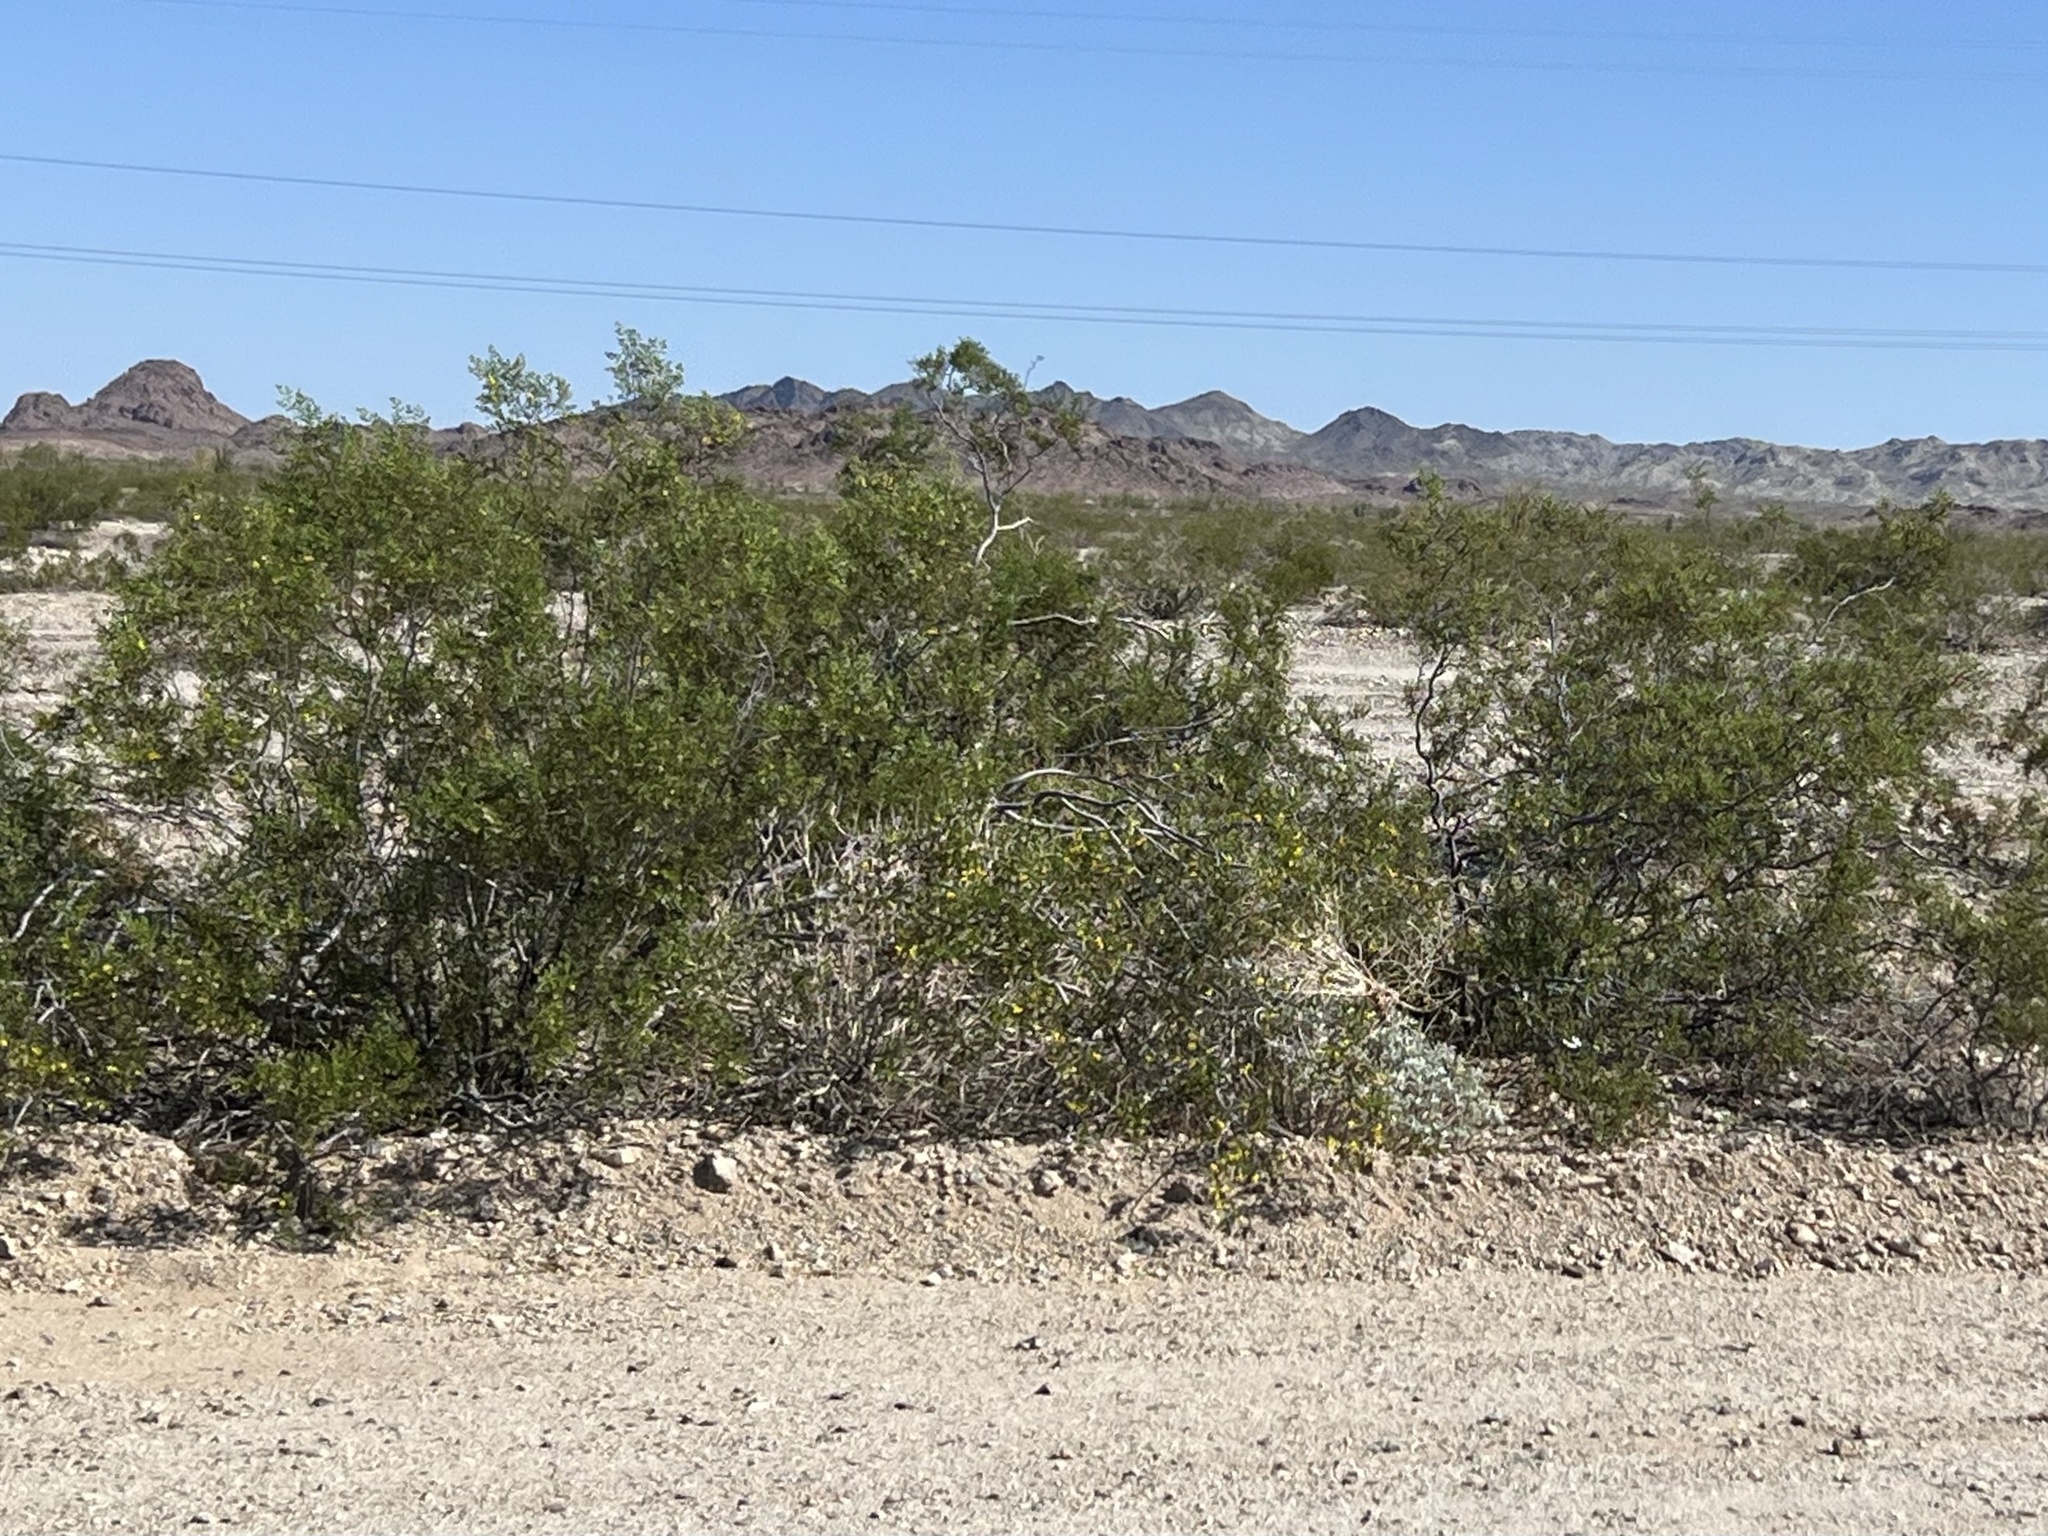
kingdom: Plantae
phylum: Tracheophyta
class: Magnoliopsida
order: Zygophyllales
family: Zygophyllaceae
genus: Larrea
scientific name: Larrea tridentata
